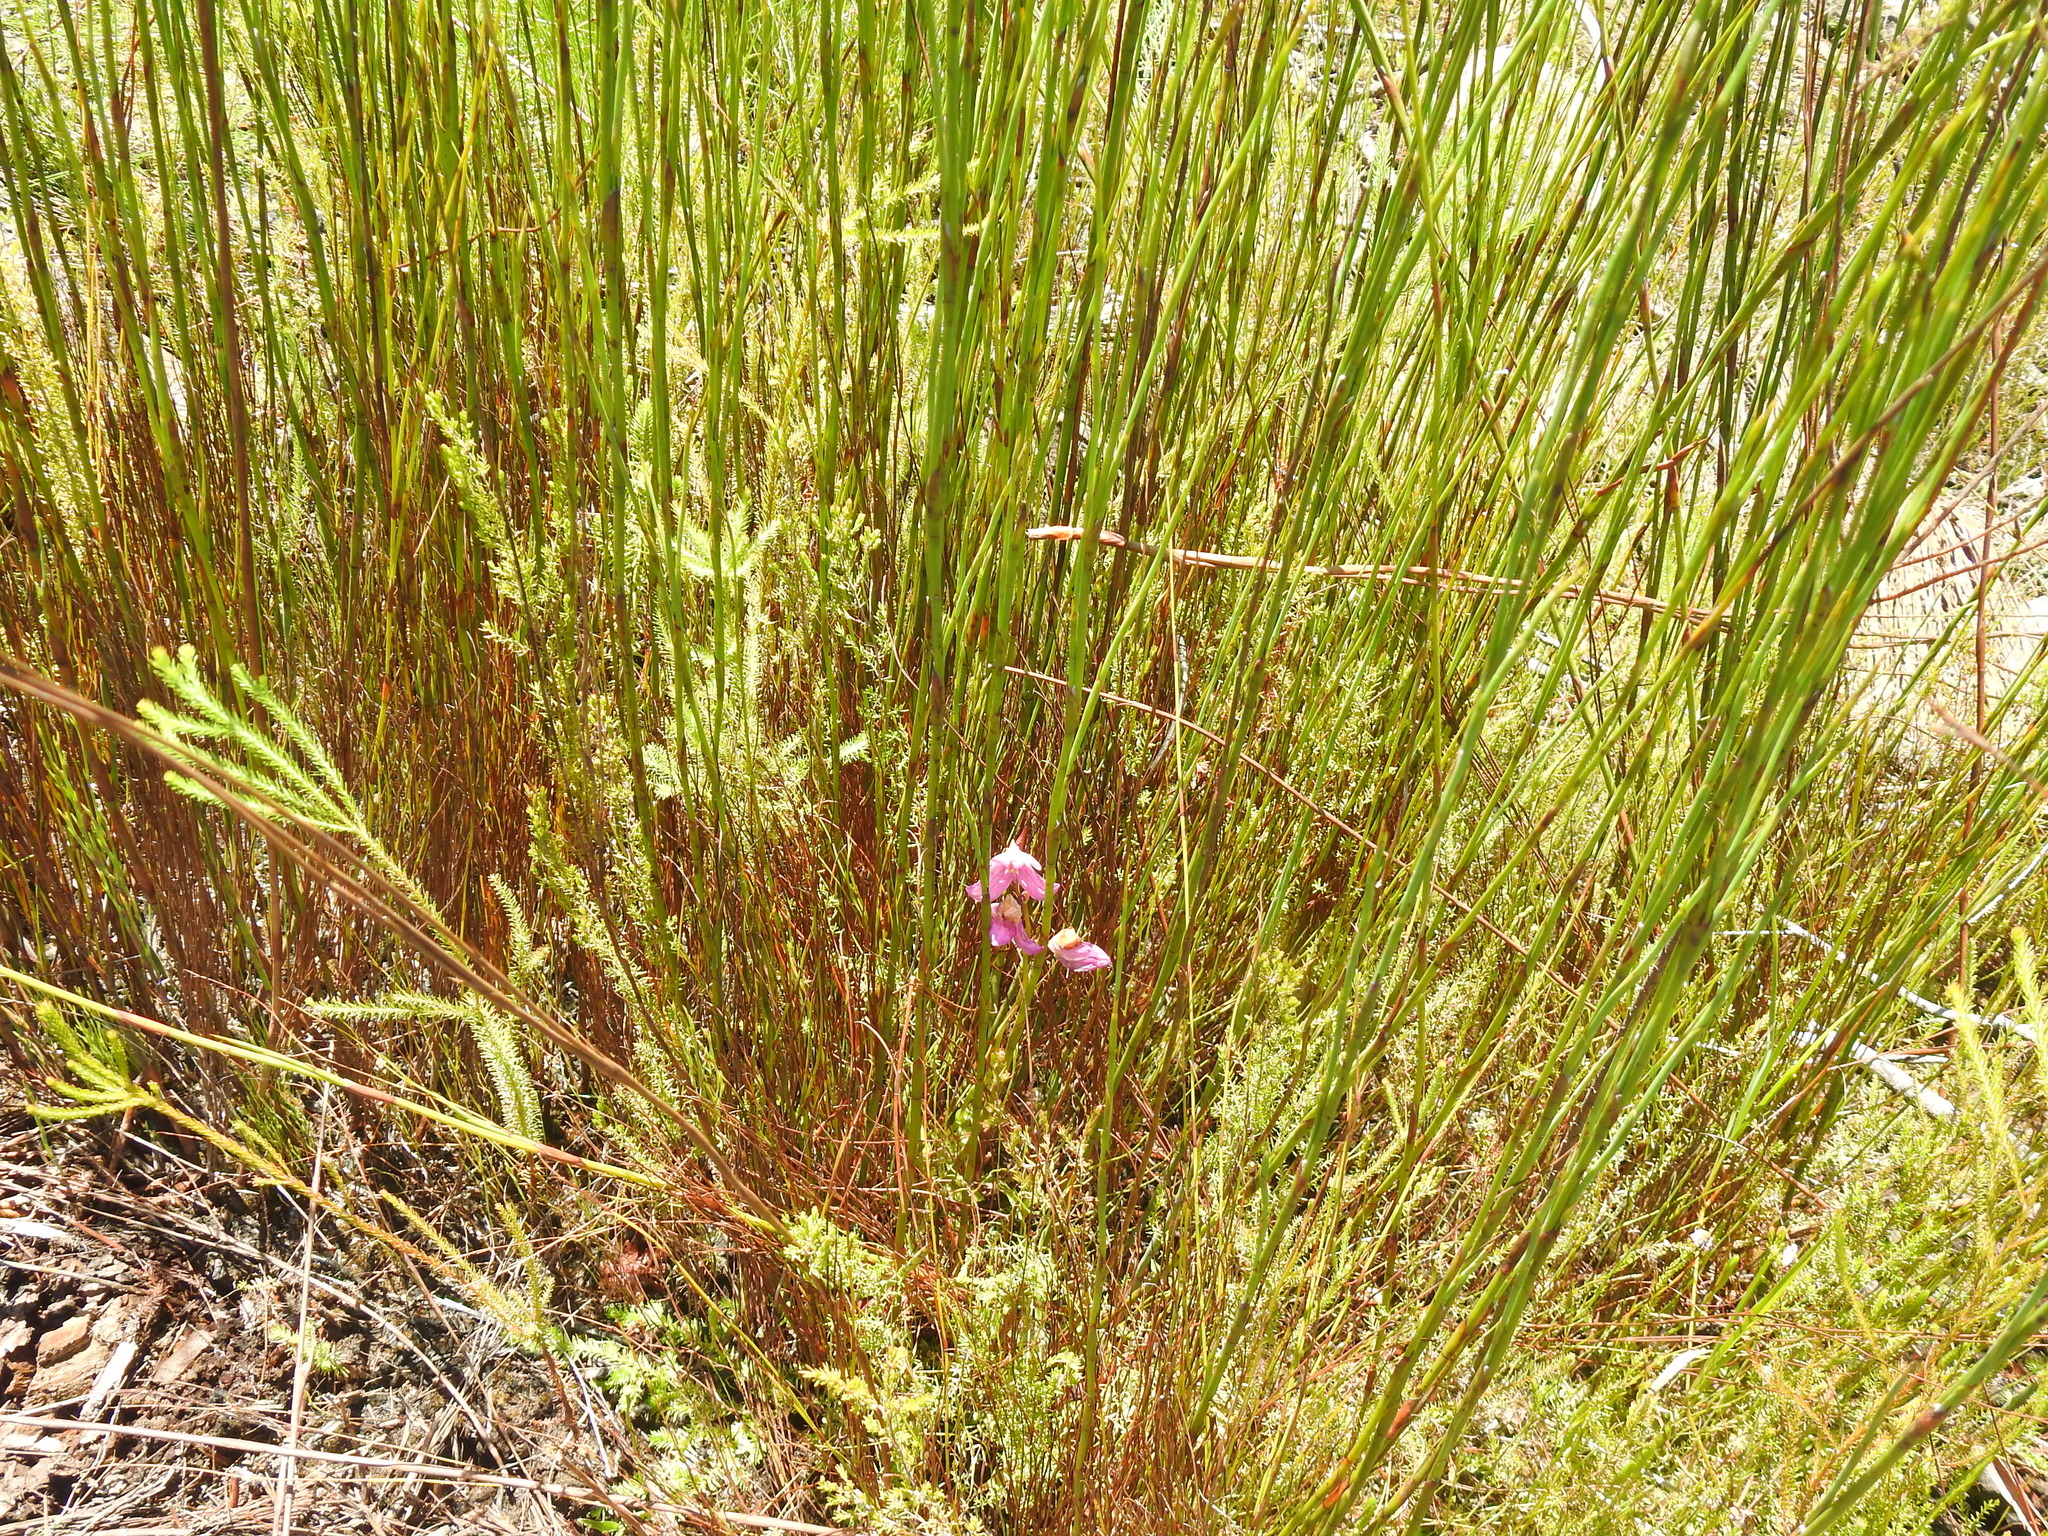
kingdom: Plantae
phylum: Tracheophyta
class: Liliopsida
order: Asparagales
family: Orchidaceae
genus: Disa
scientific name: Disa racemosa
